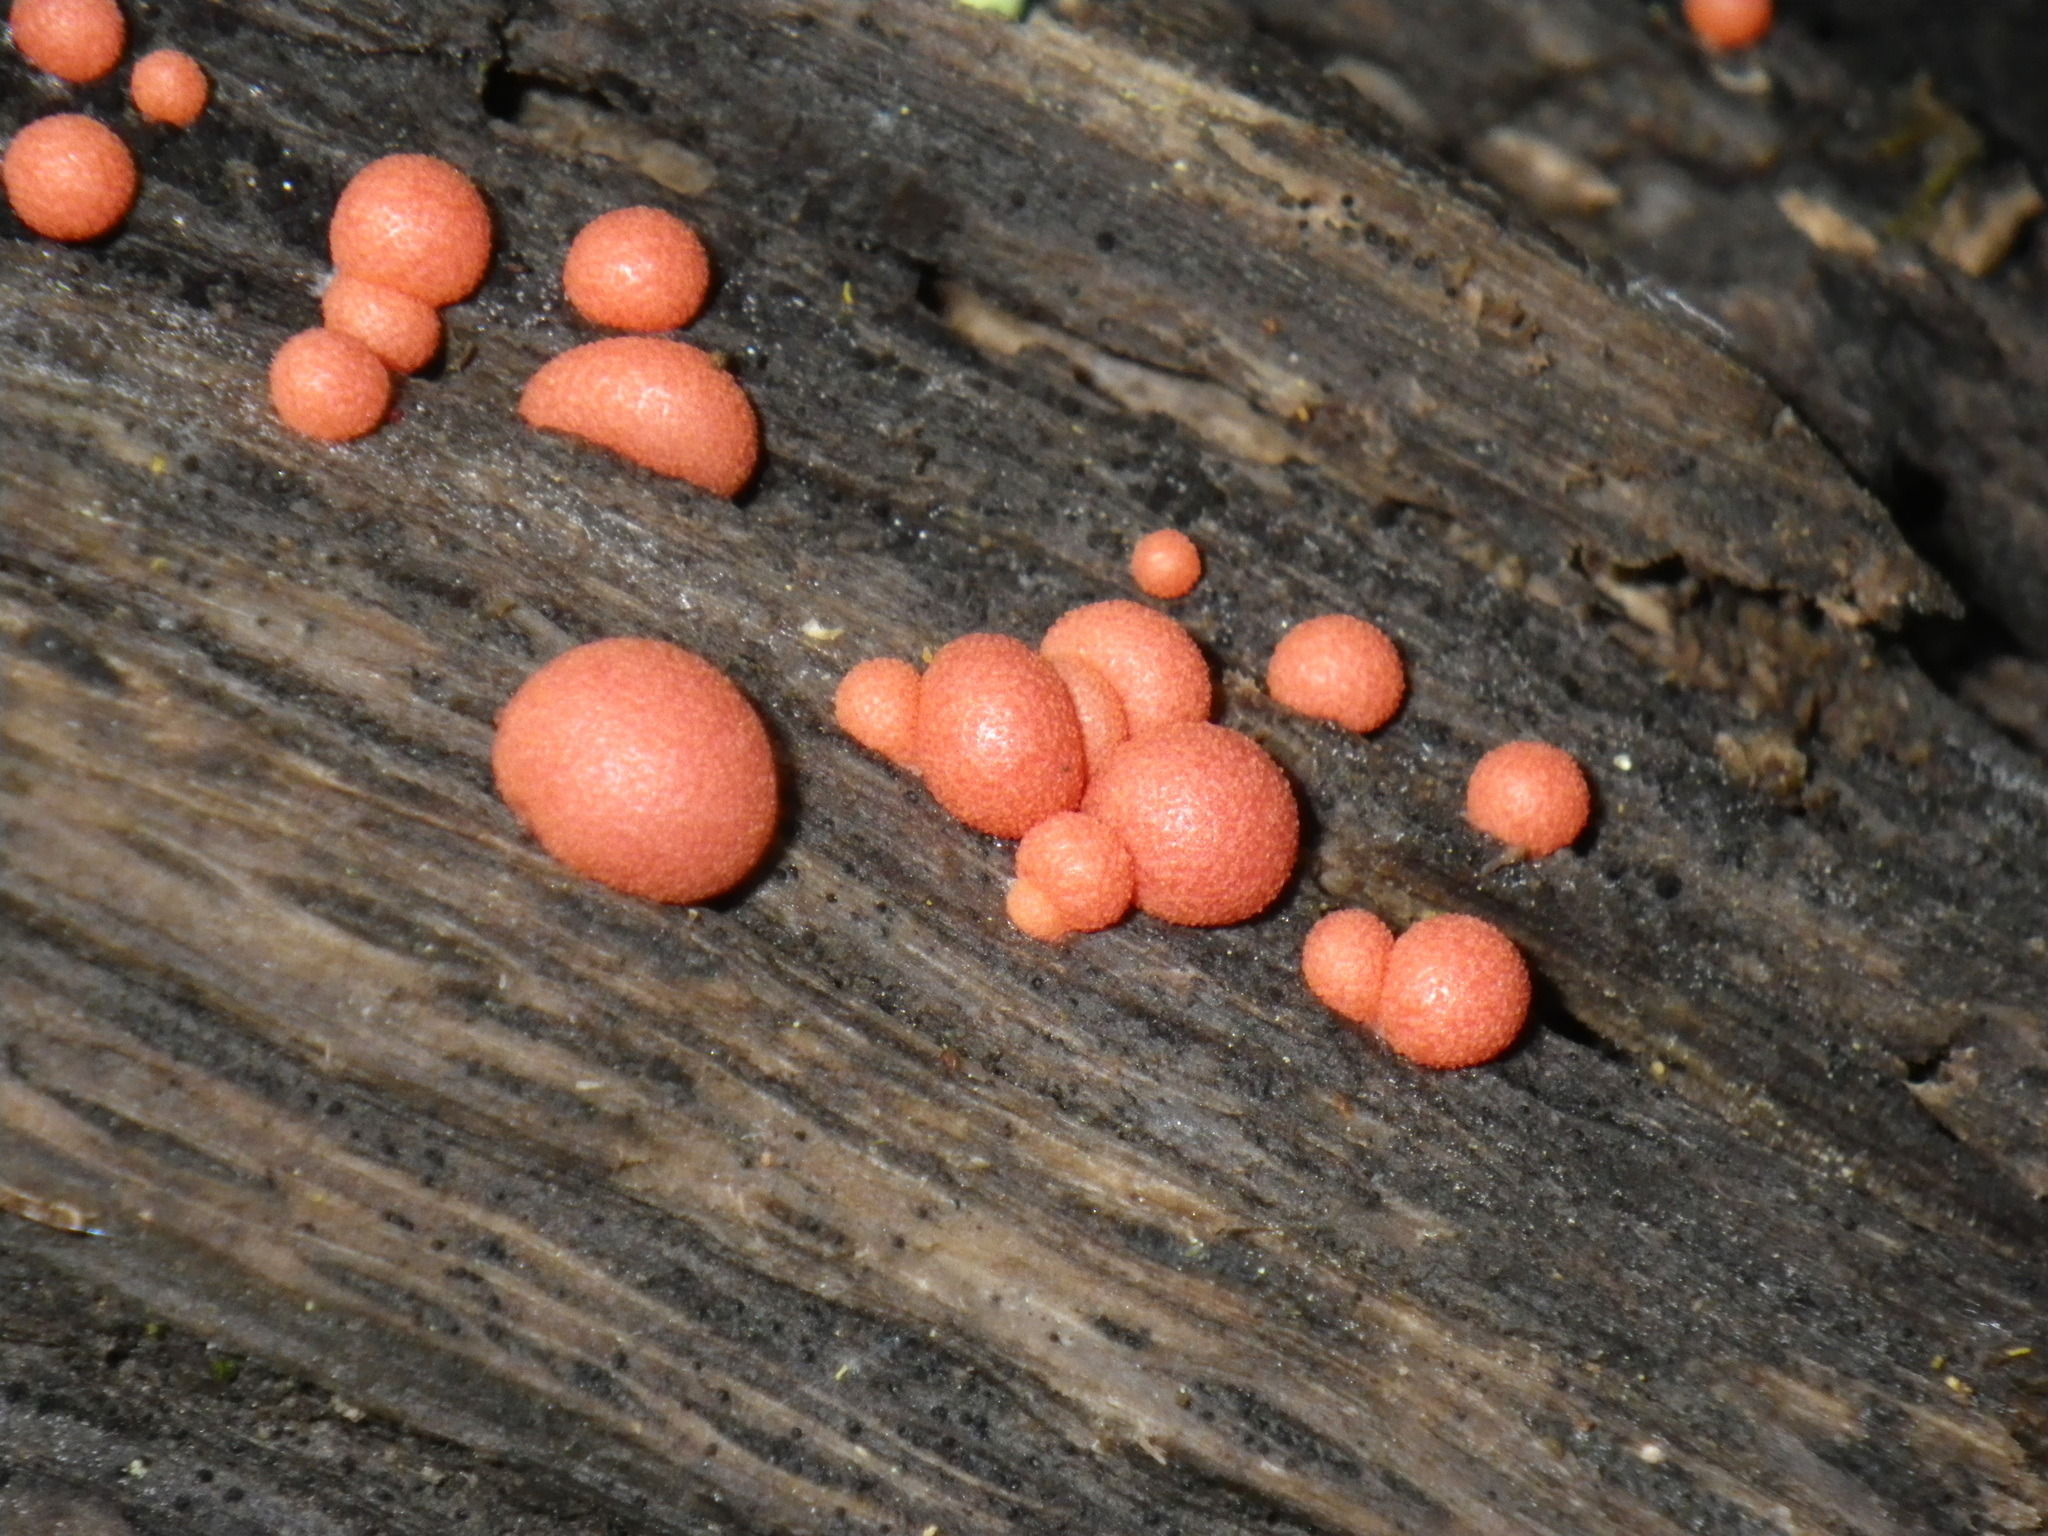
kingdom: Protozoa
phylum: Mycetozoa
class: Myxomycetes
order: Cribrariales
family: Tubiferaceae
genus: Lycogala
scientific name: Lycogala epidendrum
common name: Wolf's milk
